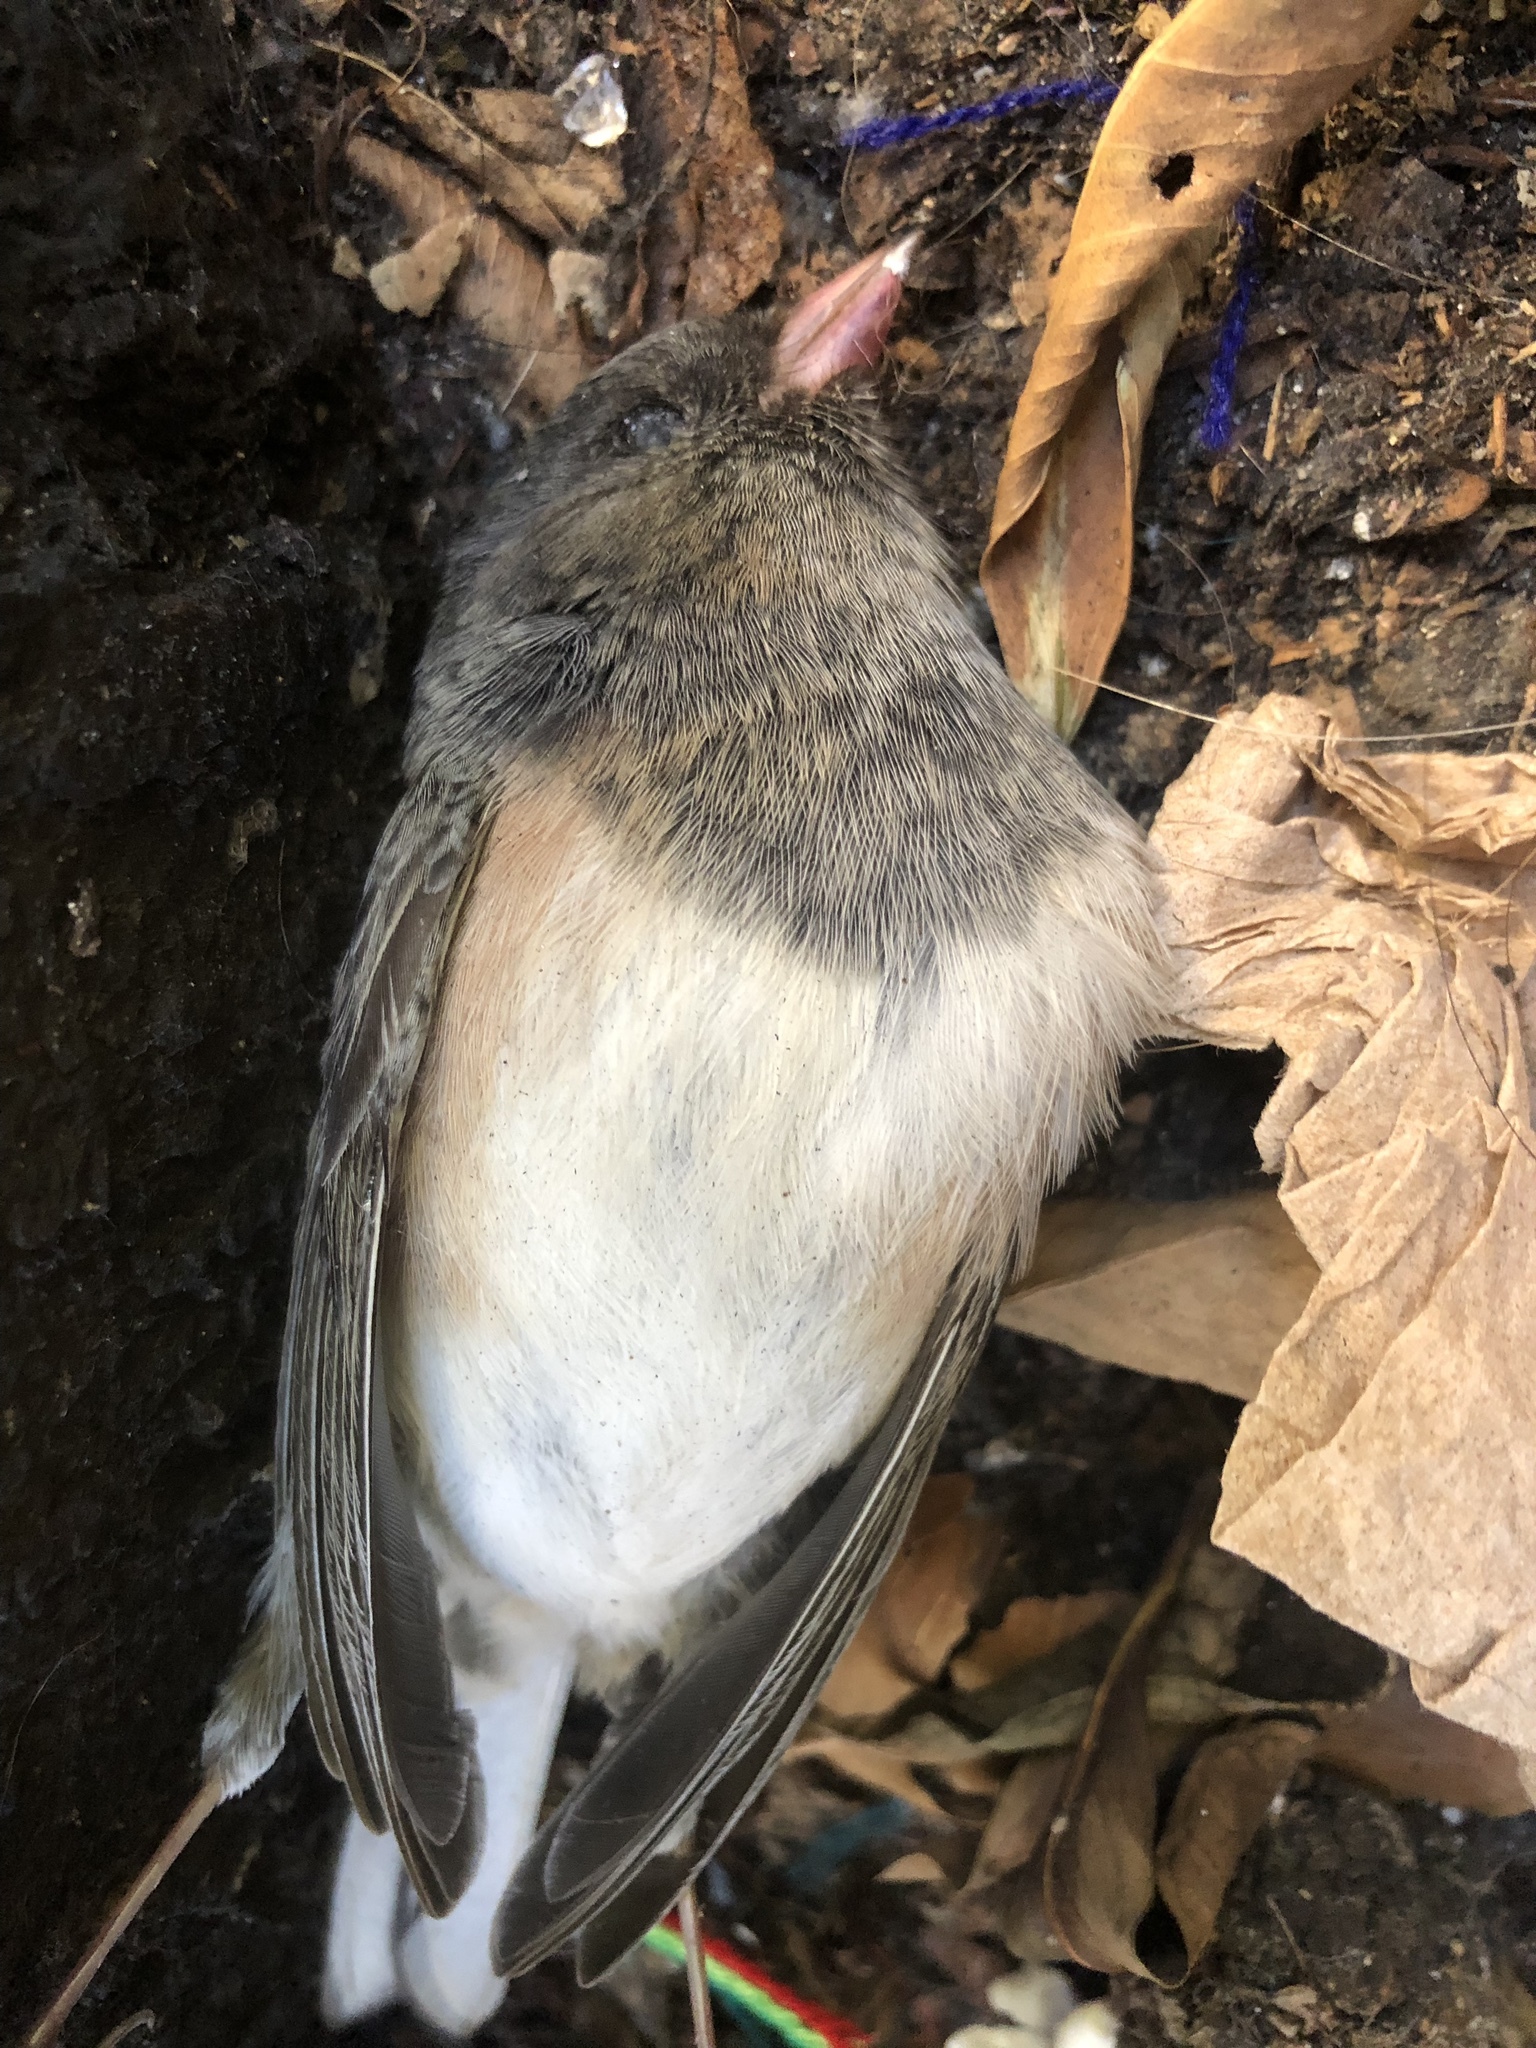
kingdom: Animalia
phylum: Chordata
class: Aves
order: Passeriformes
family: Passerellidae
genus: Junco
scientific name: Junco hyemalis
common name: Dark-eyed junco
